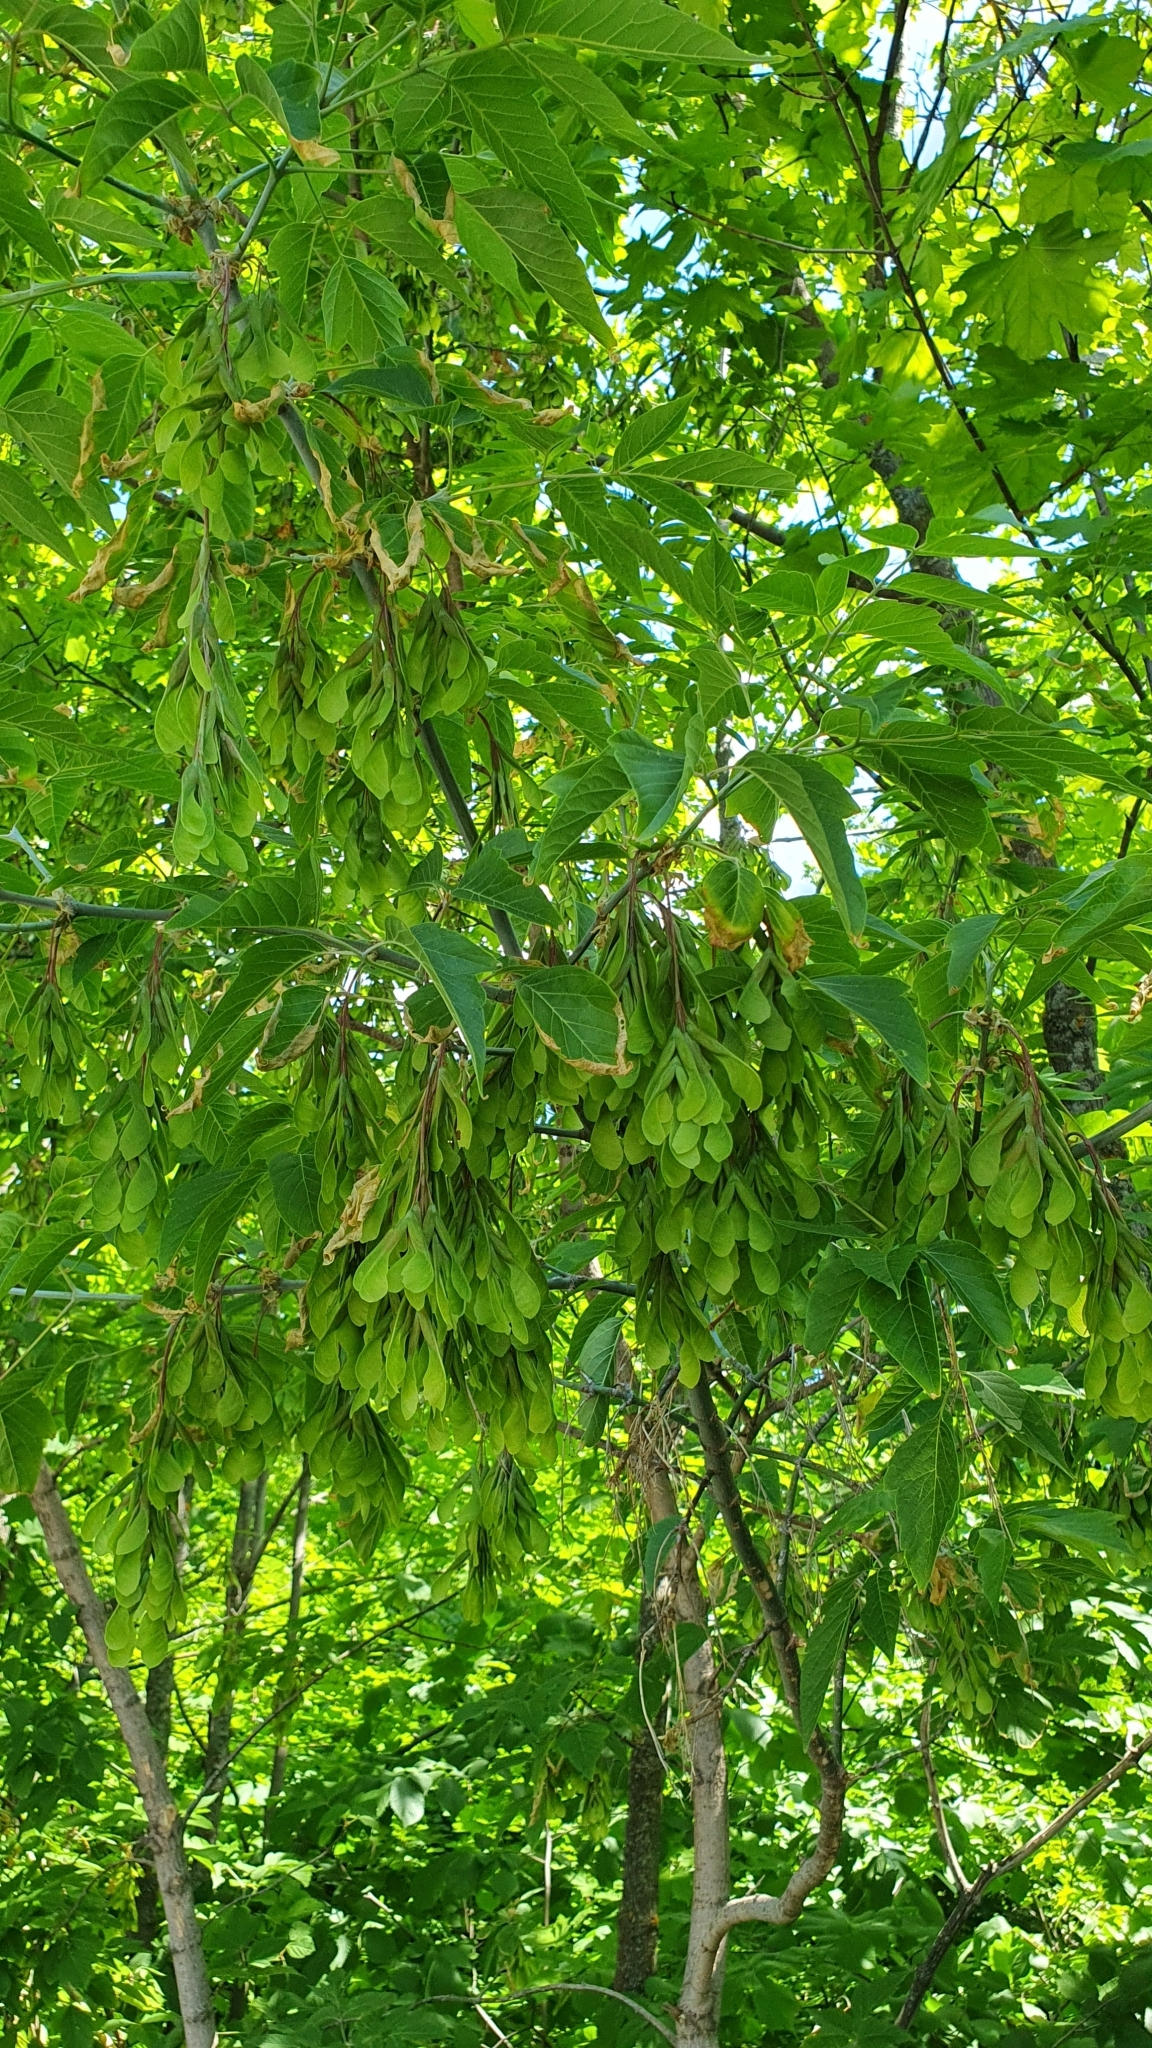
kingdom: Plantae
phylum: Tracheophyta
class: Magnoliopsida
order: Sapindales
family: Sapindaceae
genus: Acer
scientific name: Acer negundo
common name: Ashleaf maple
